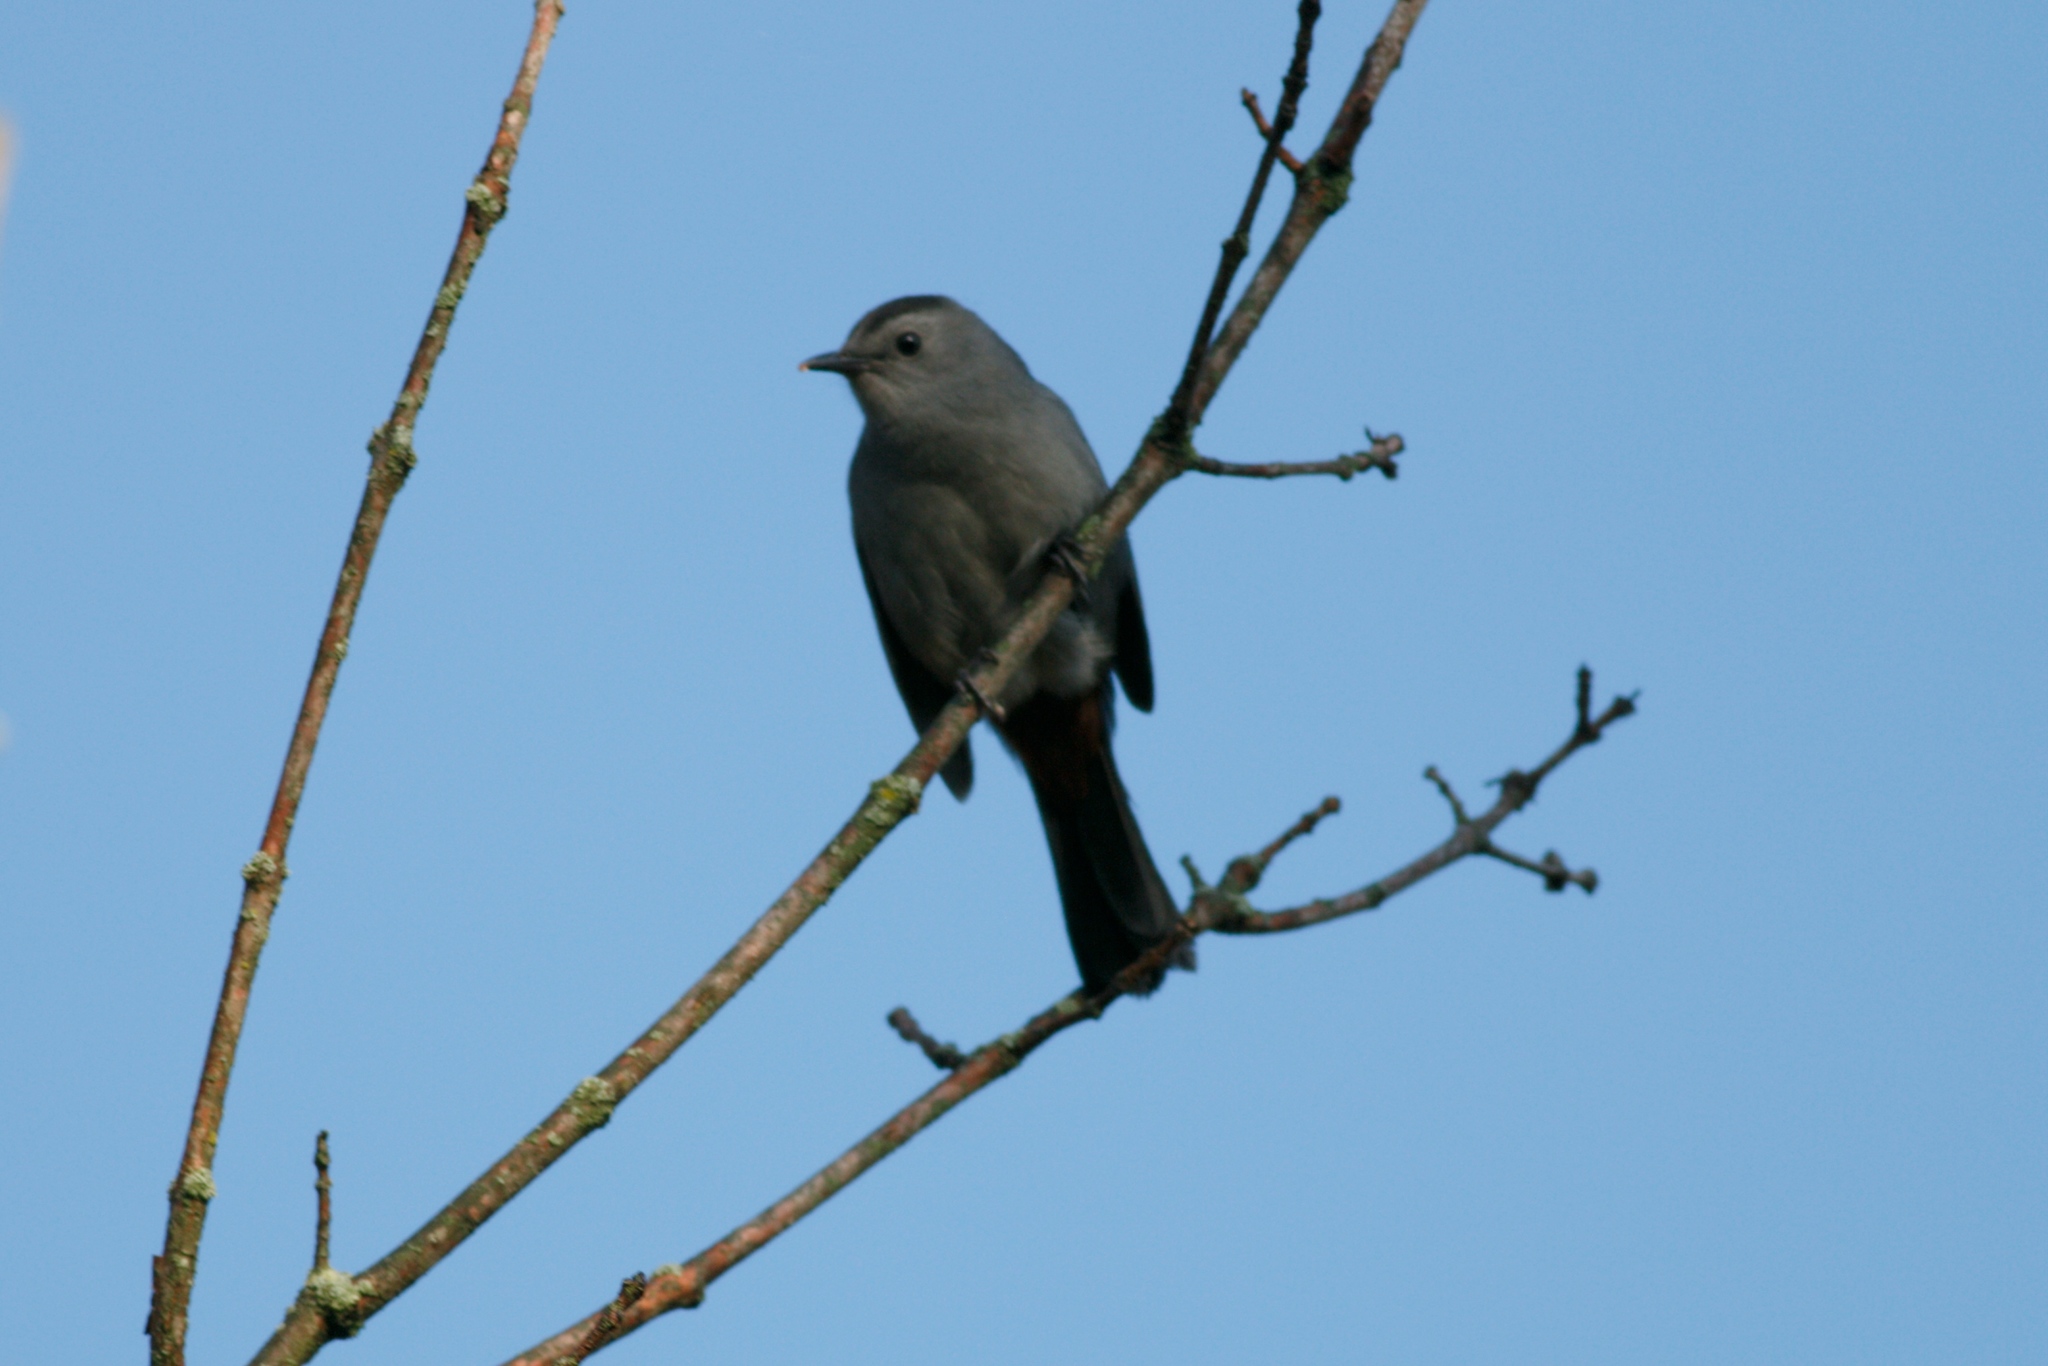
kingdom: Animalia
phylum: Chordata
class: Aves
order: Passeriformes
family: Mimidae
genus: Dumetella
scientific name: Dumetella carolinensis
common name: Gray catbird
